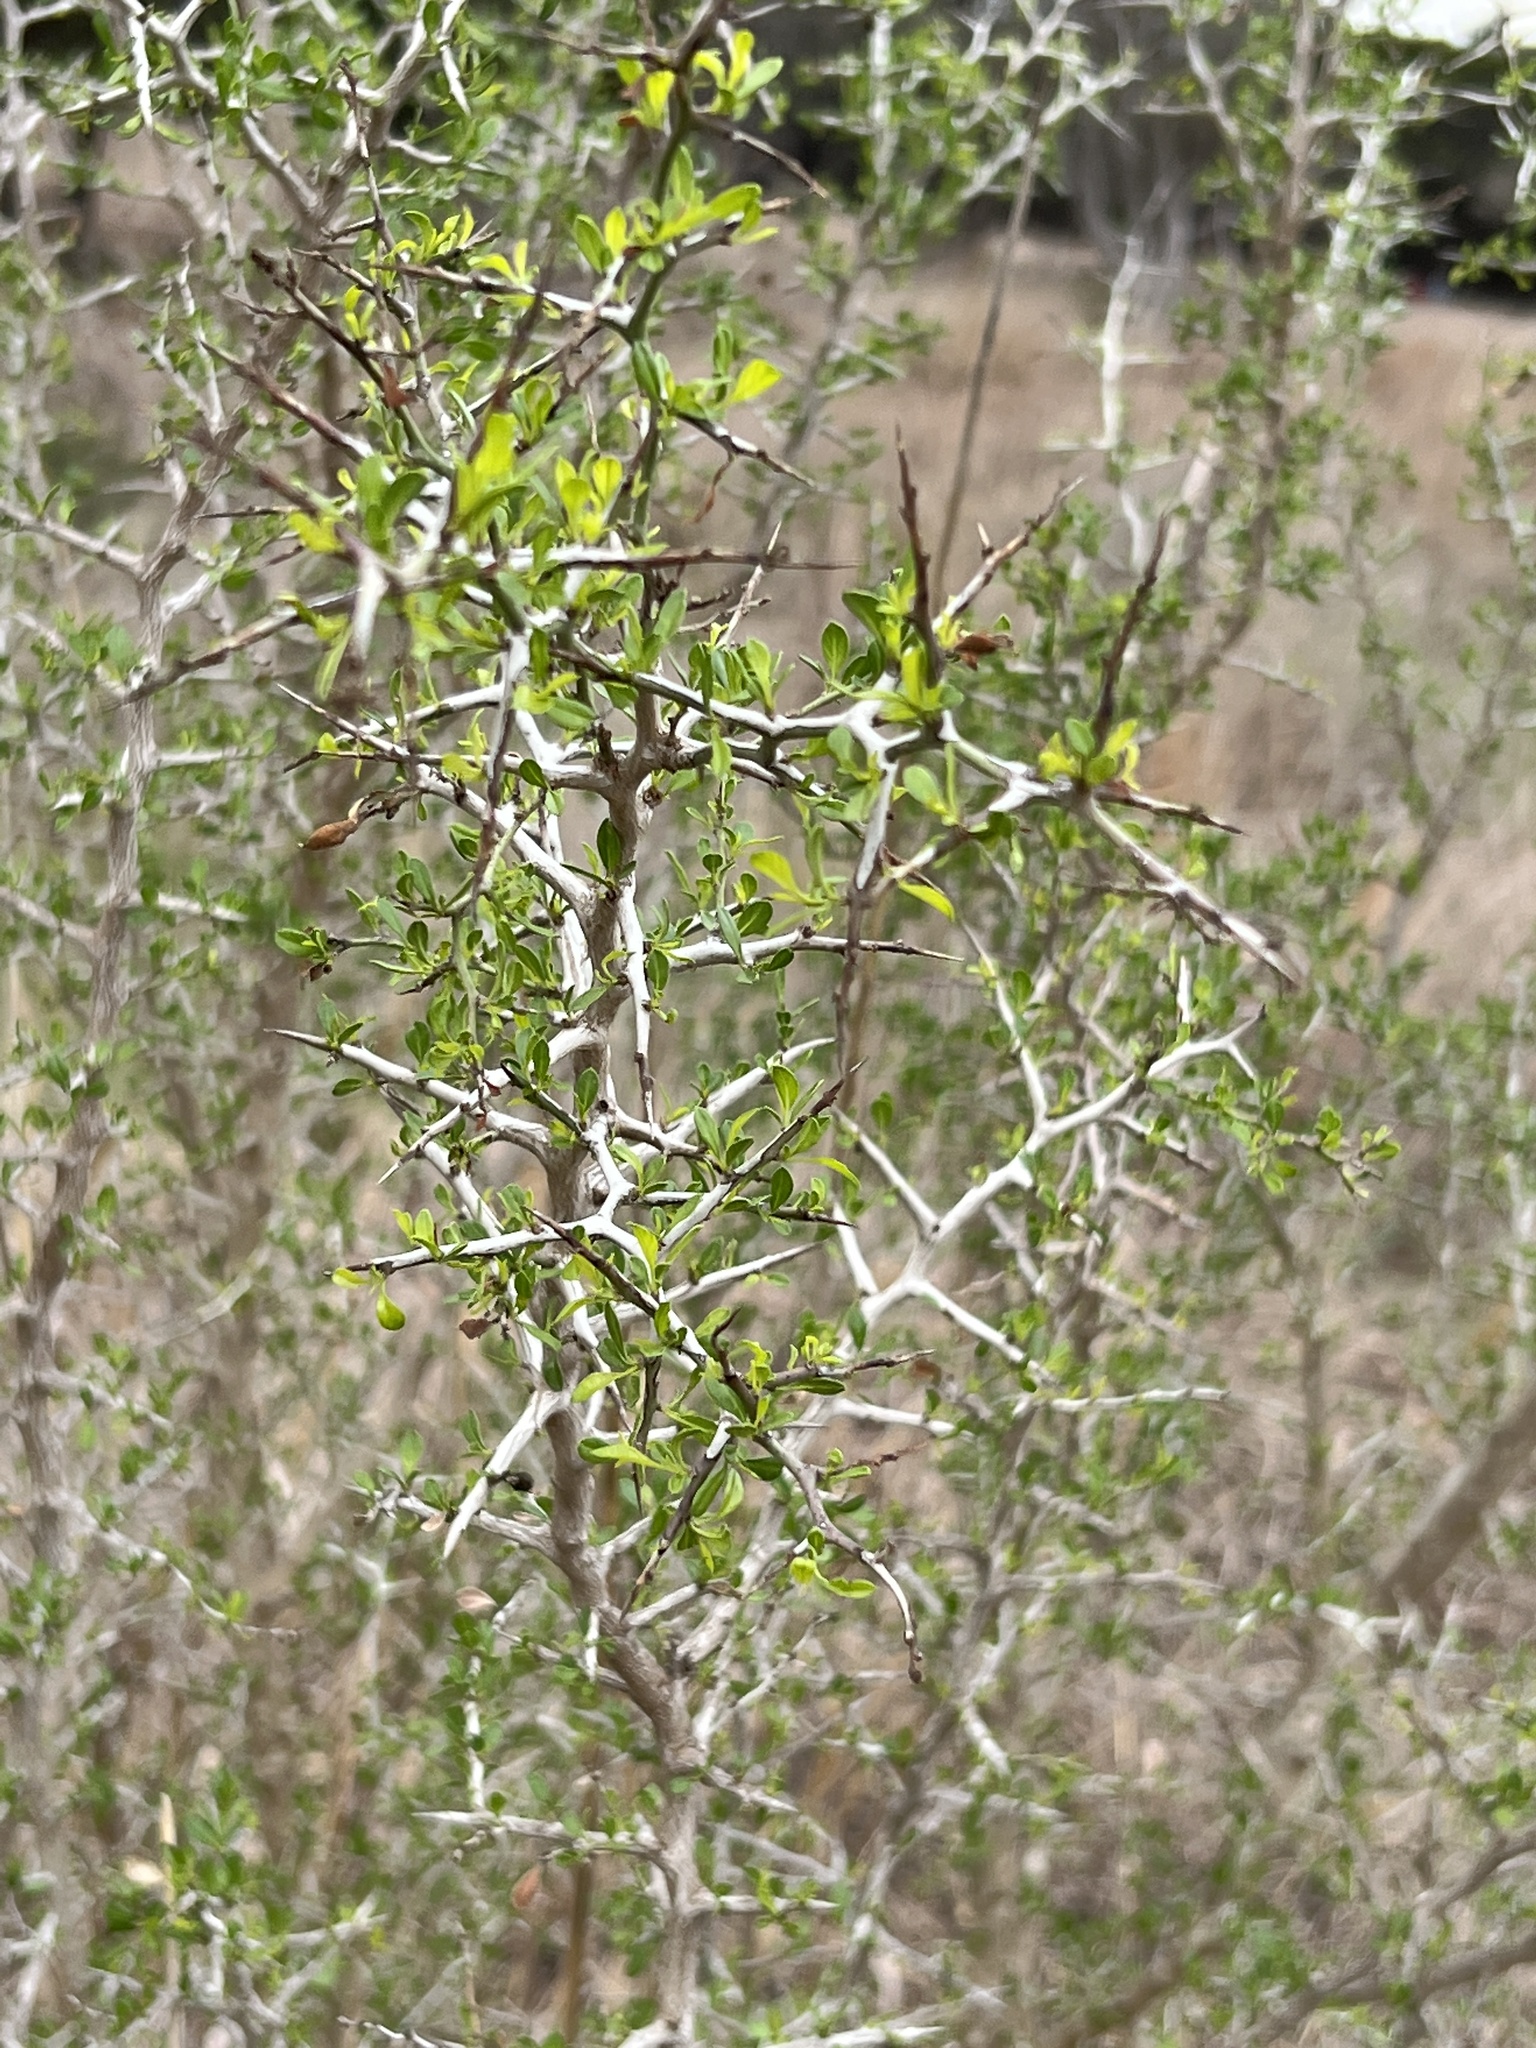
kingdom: Plantae
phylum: Tracheophyta
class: Magnoliopsida
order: Rosales
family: Rhamnaceae
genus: Condalia
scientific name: Condalia hookeri
